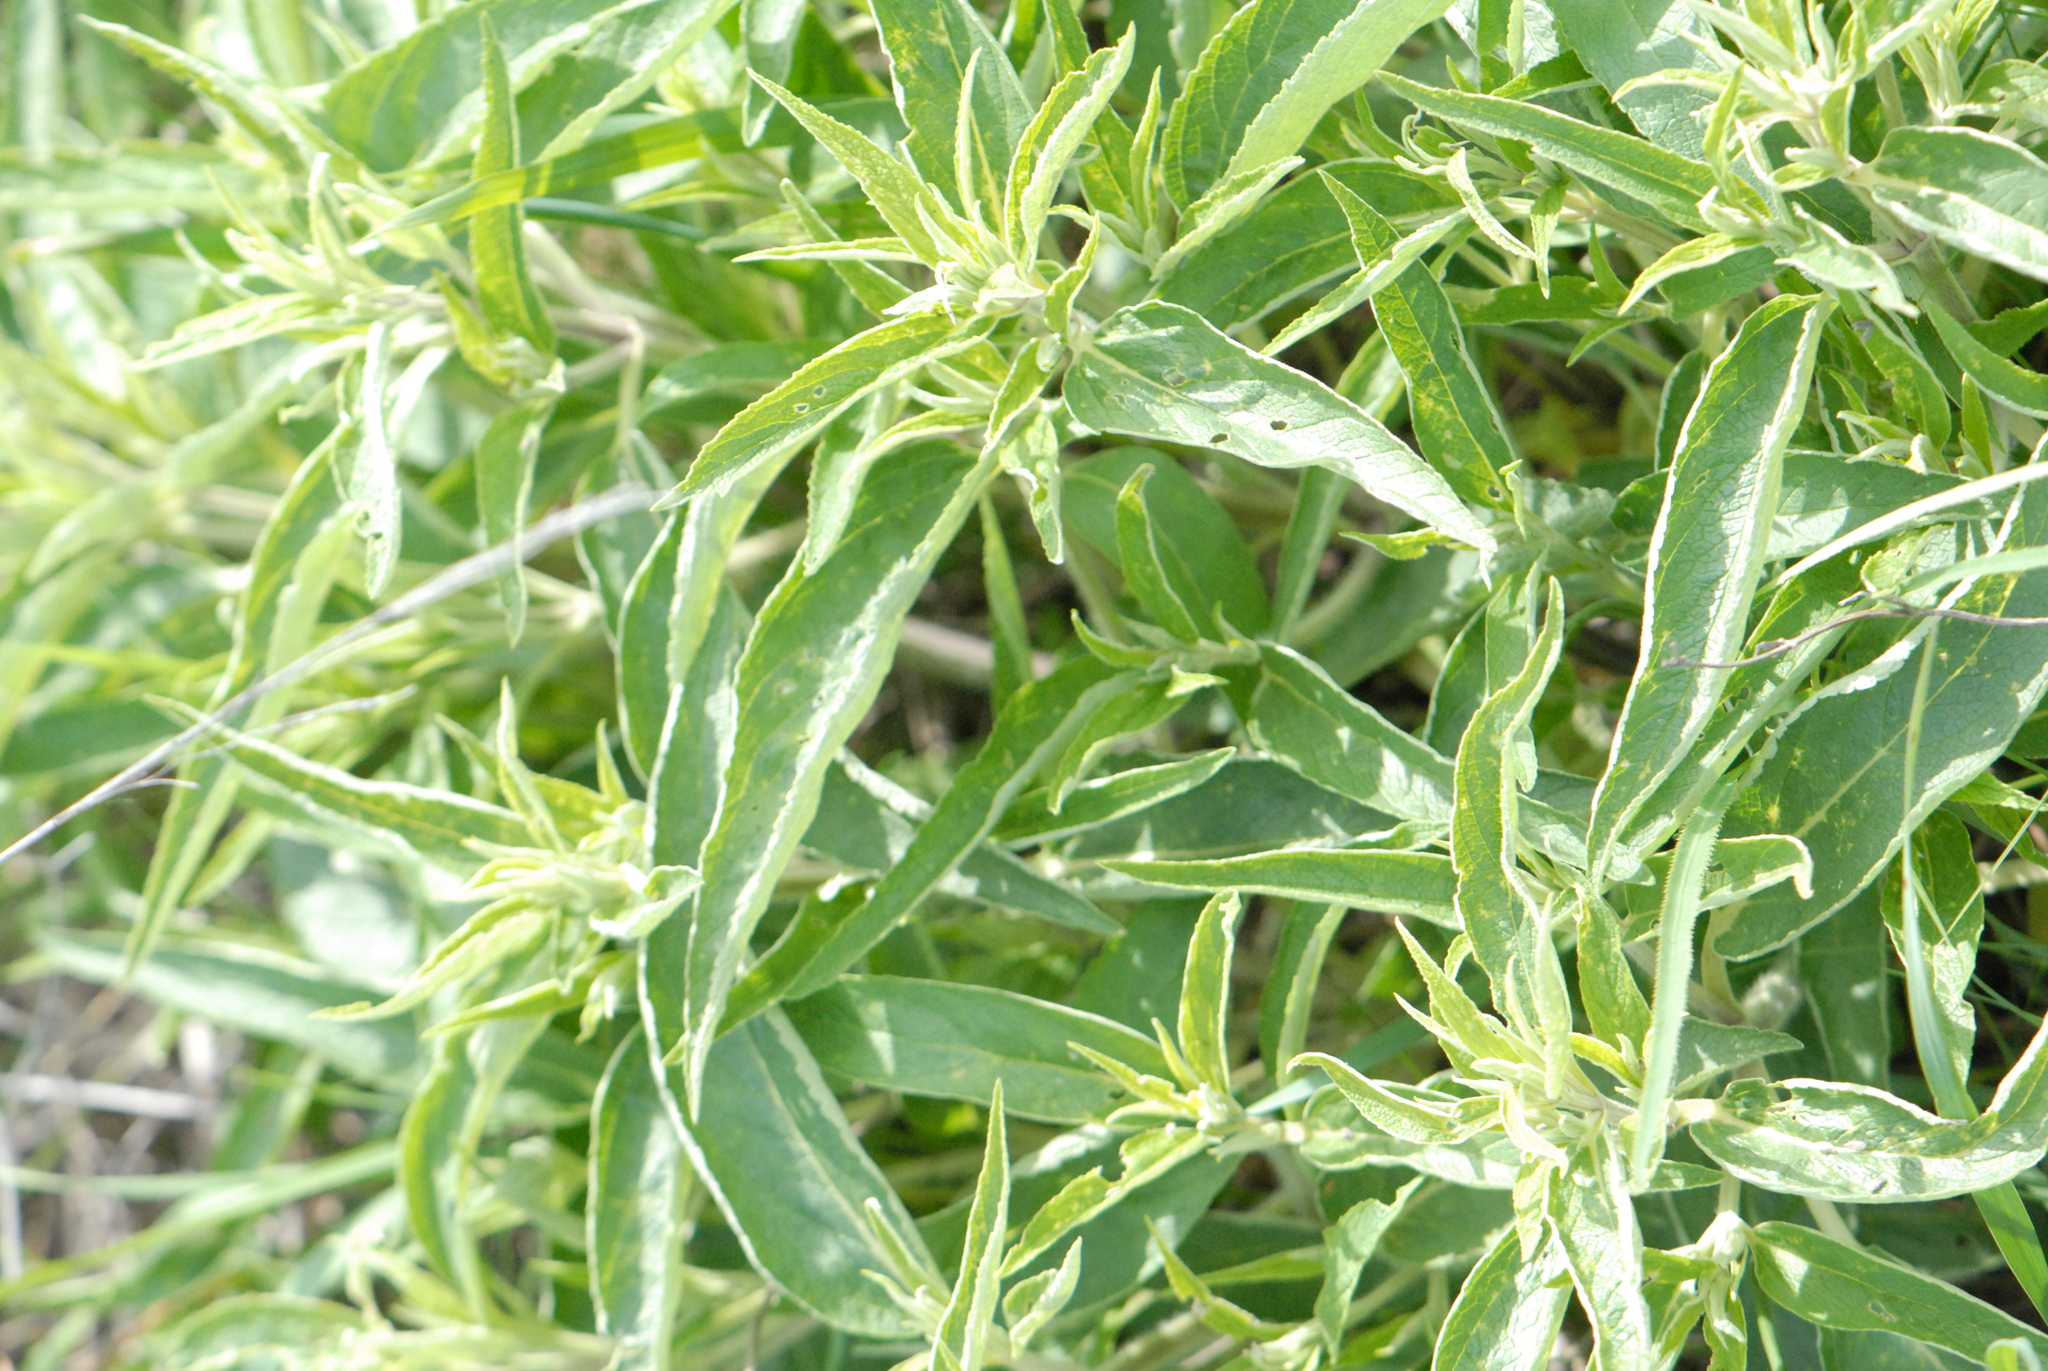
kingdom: Plantae
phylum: Tracheophyta
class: Magnoliopsida
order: Lamiales
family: Lamiaceae
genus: Phlomis
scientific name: Phlomis herba-venti
